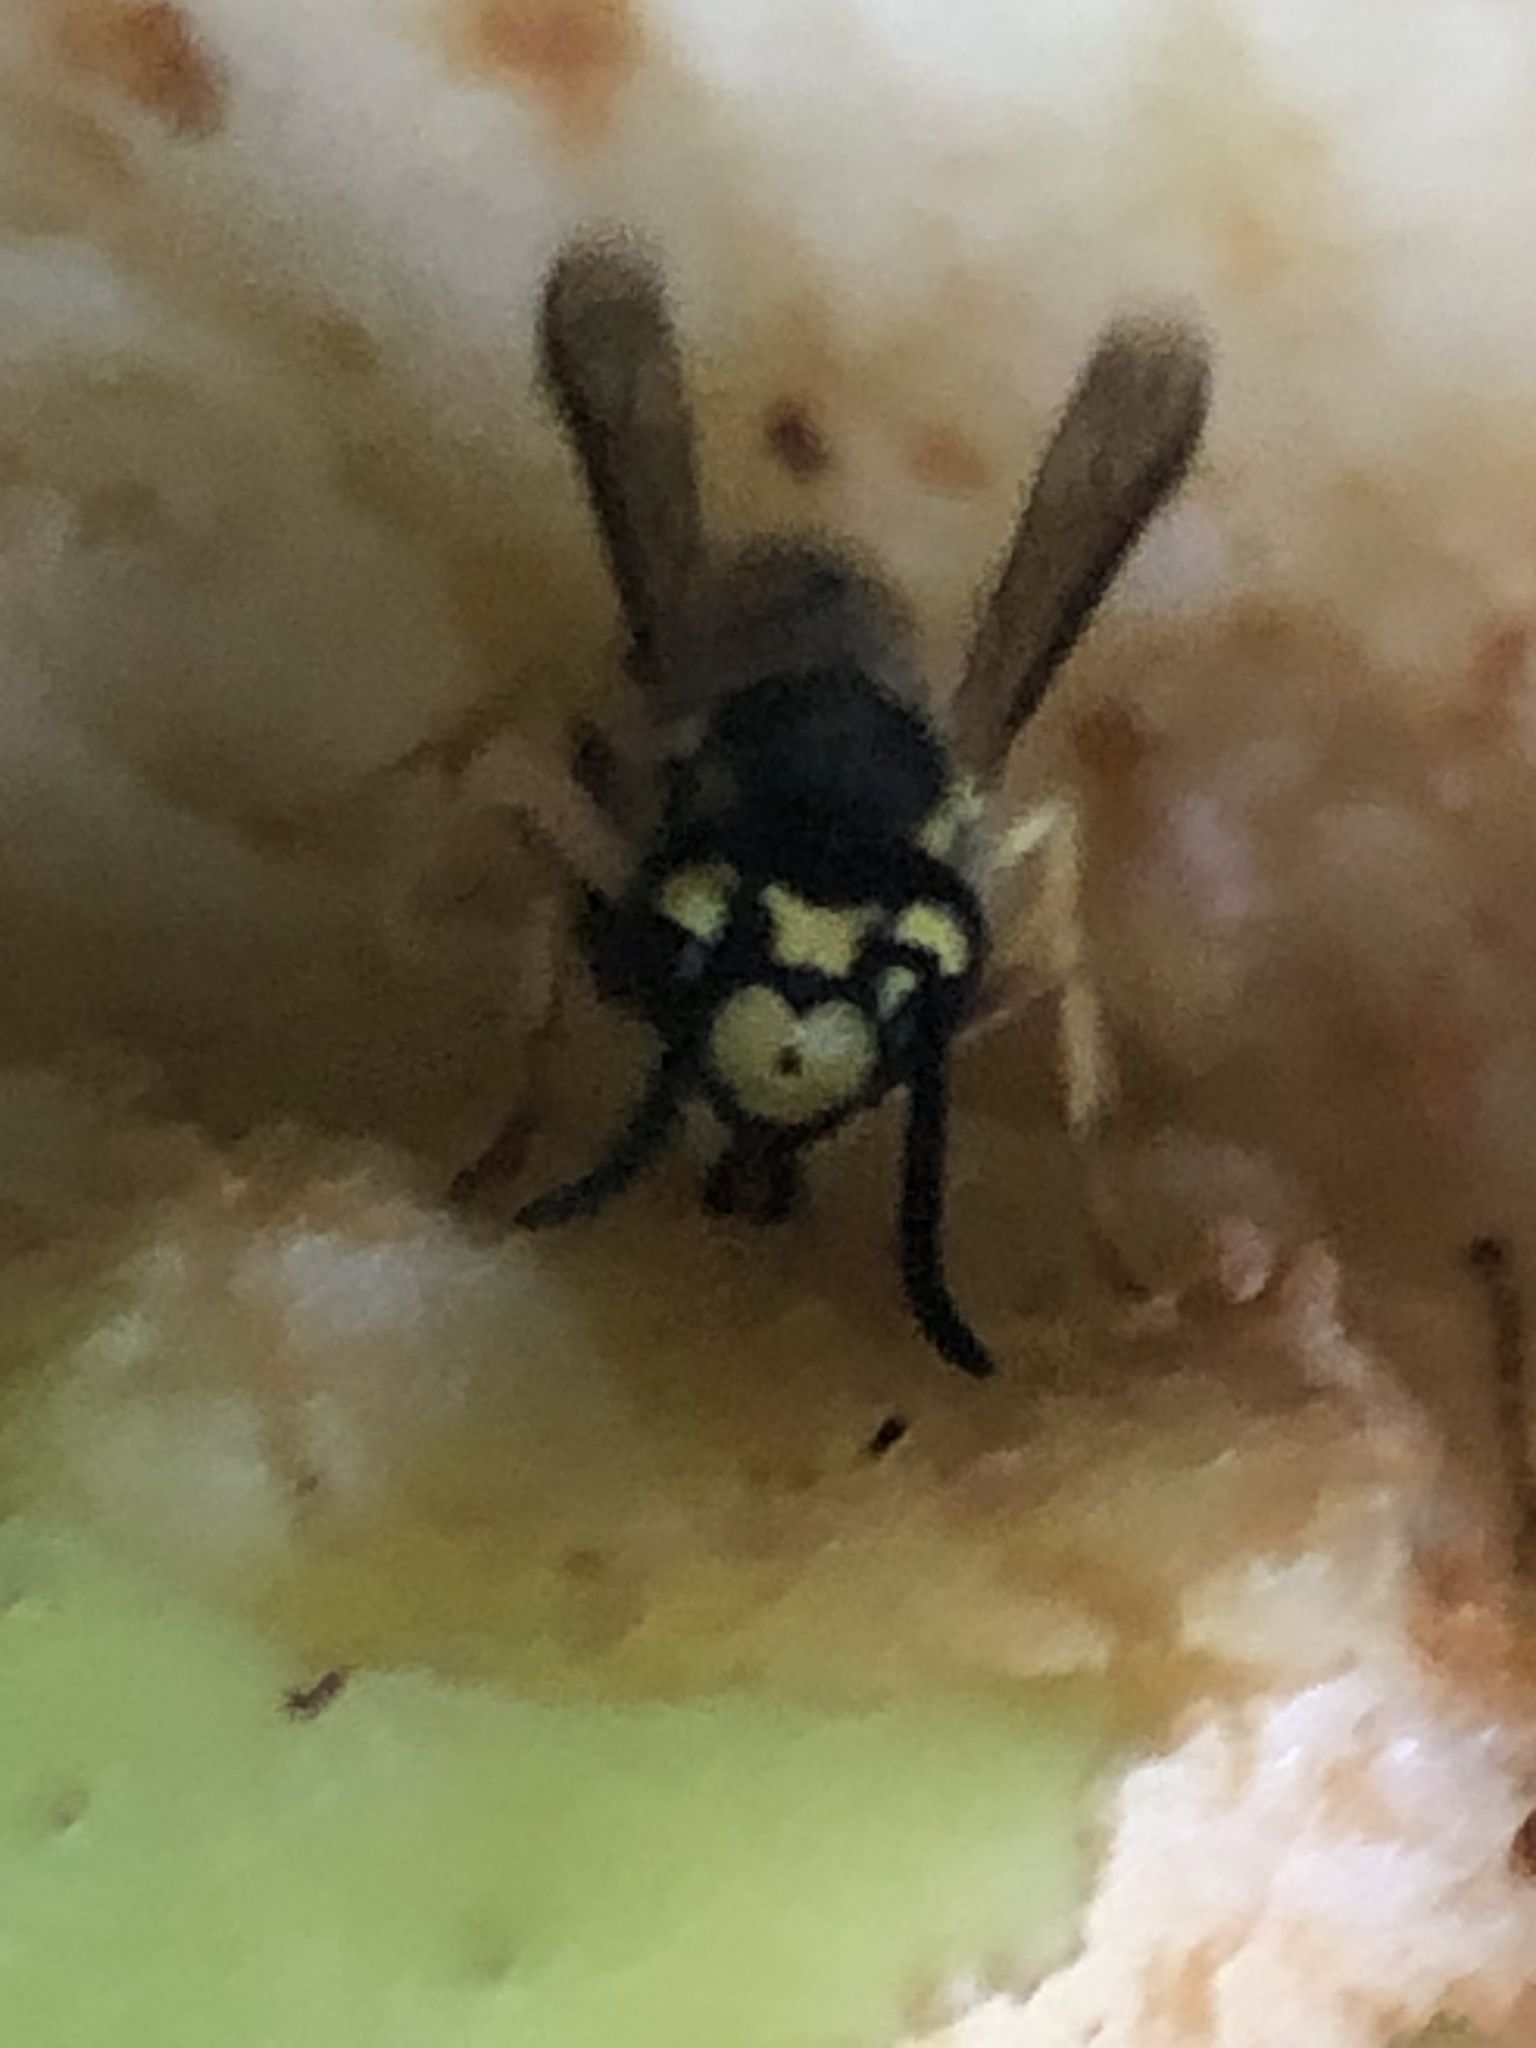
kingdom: Animalia
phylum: Arthropoda
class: Insecta
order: Hymenoptera
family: Vespidae
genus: Vespula
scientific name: Vespula
